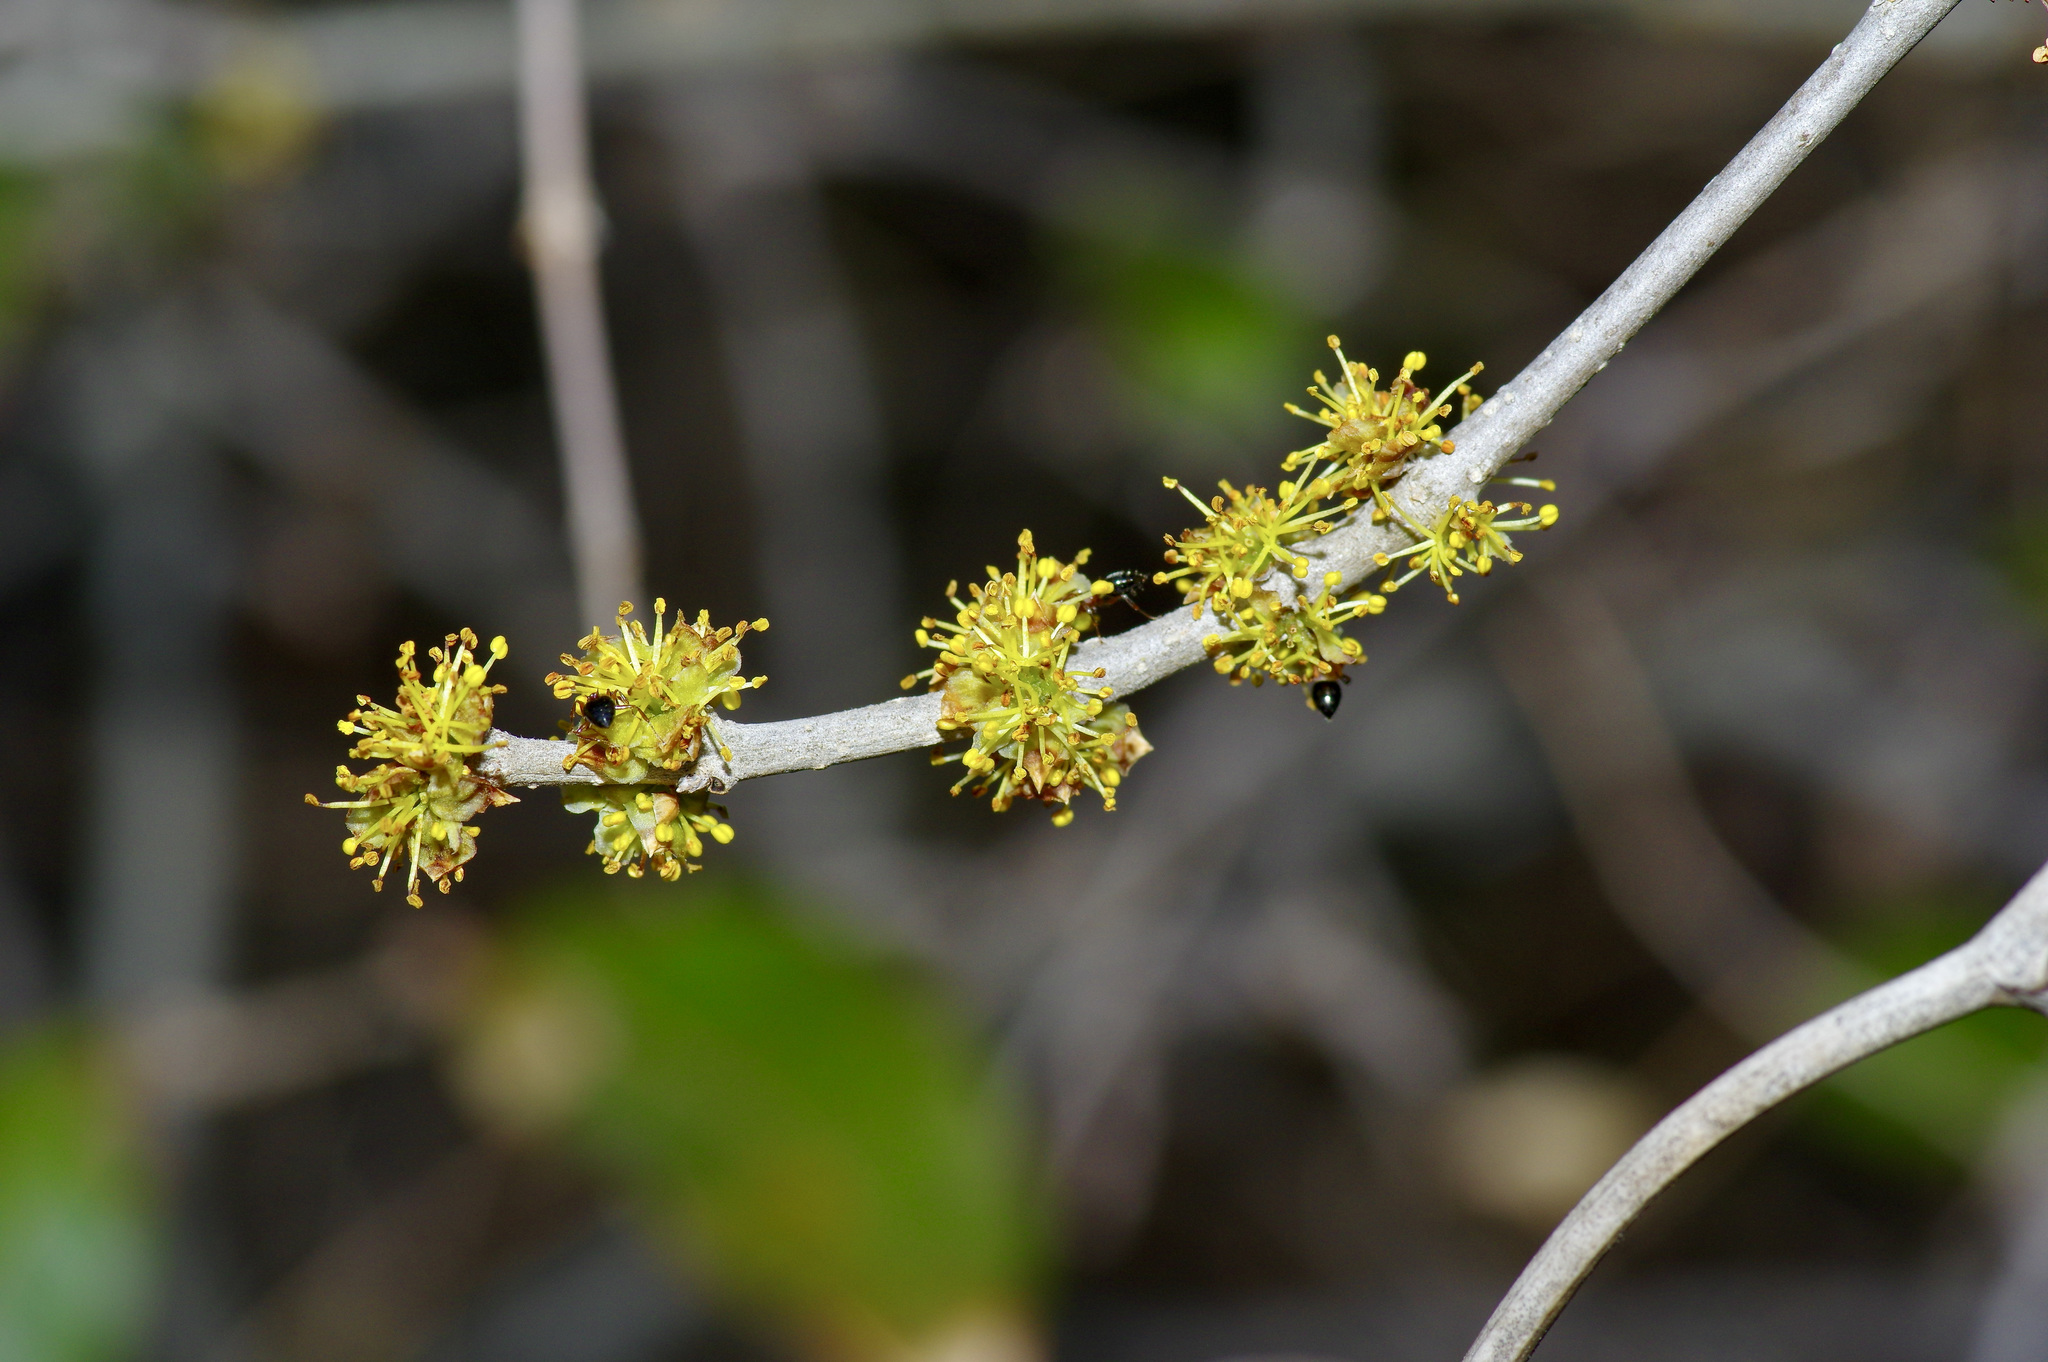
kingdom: Plantae
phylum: Tracheophyta
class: Magnoliopsida
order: Lamiales
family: Oleaceae
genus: Forestiera
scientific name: Forestiera pubescens
